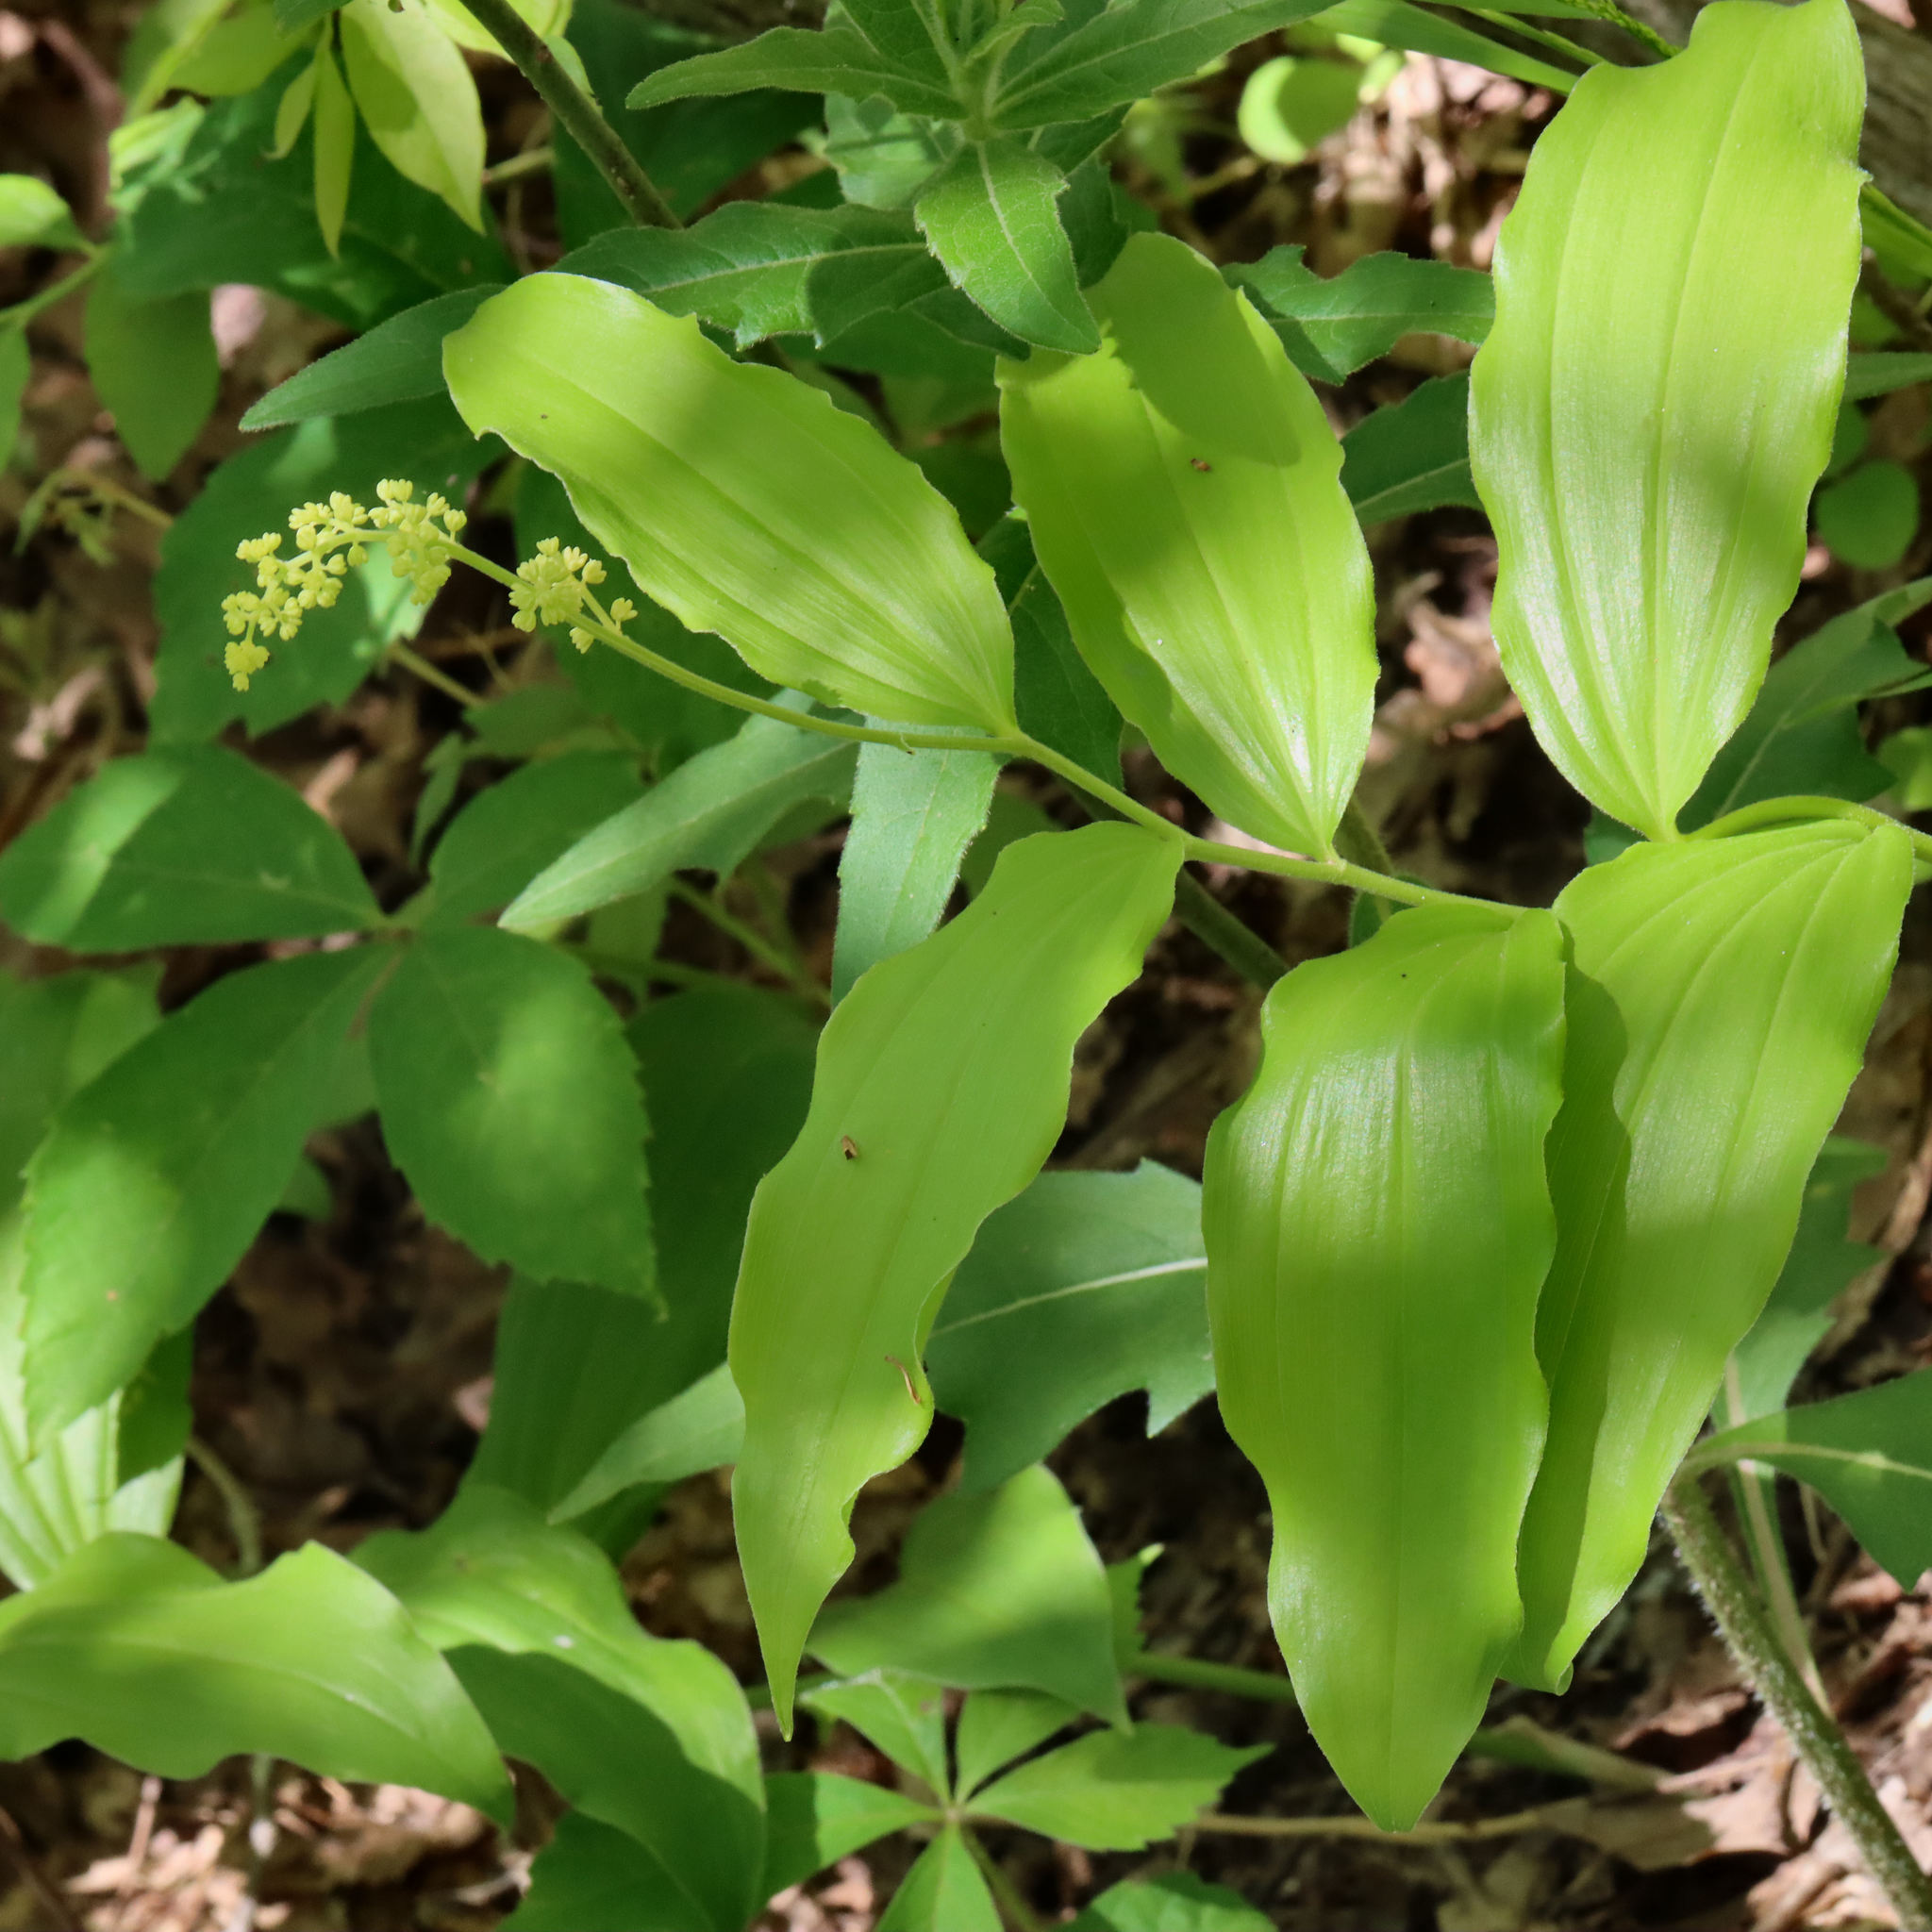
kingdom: Plantae
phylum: Tracheophyta
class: Liliopsida
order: Asparagales
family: Asparagaceae
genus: Maianthemum
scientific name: Maianthemum racemosum
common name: False spikenard
